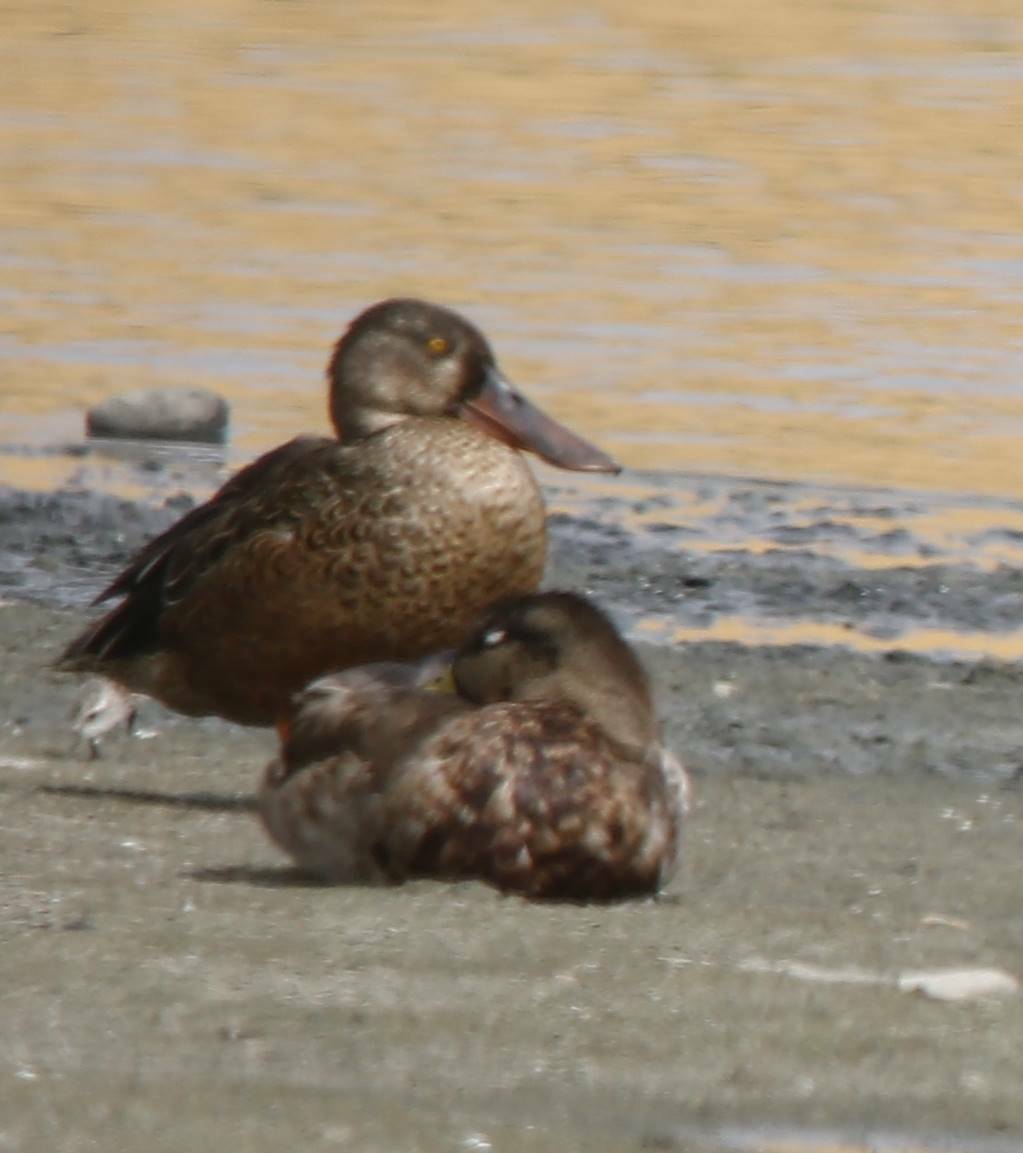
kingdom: Animalia
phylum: Chordata
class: Aves
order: Anseriformes
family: Anatidae
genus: Spatula
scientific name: Spatula clypeata
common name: Northern shoveler
